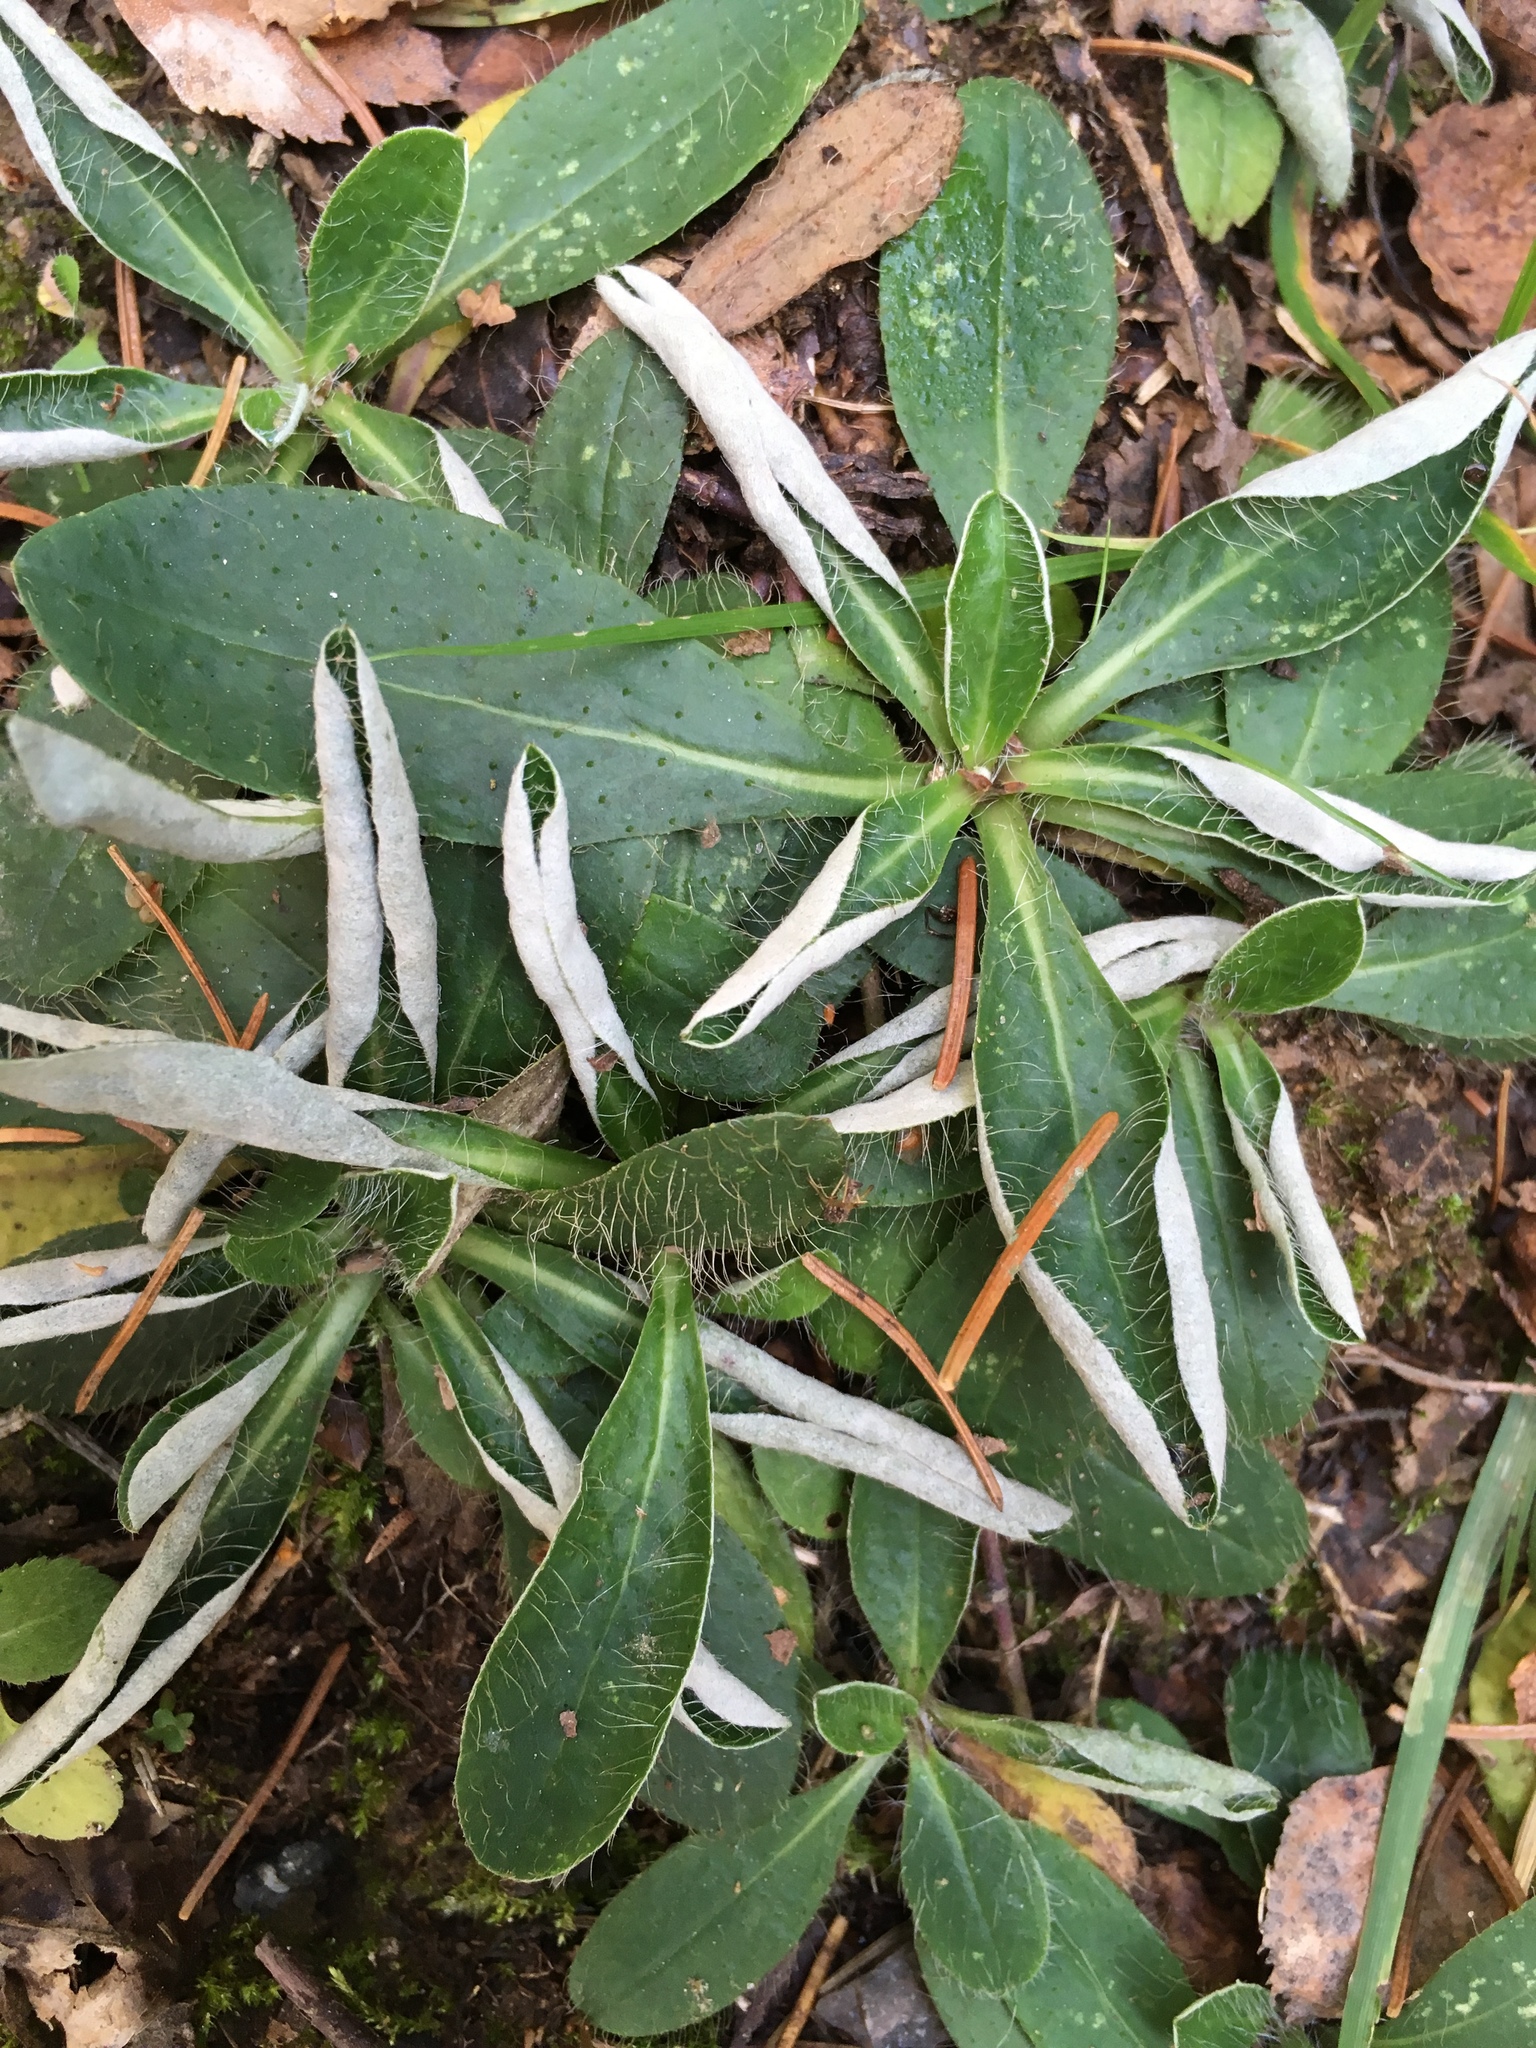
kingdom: Plantae
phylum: Tracheophyta
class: Magnoliopsida
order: Asterales
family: Asteraceae
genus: Pilosella
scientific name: Pilosella officinarum
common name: Mouse-ear hawkweed
